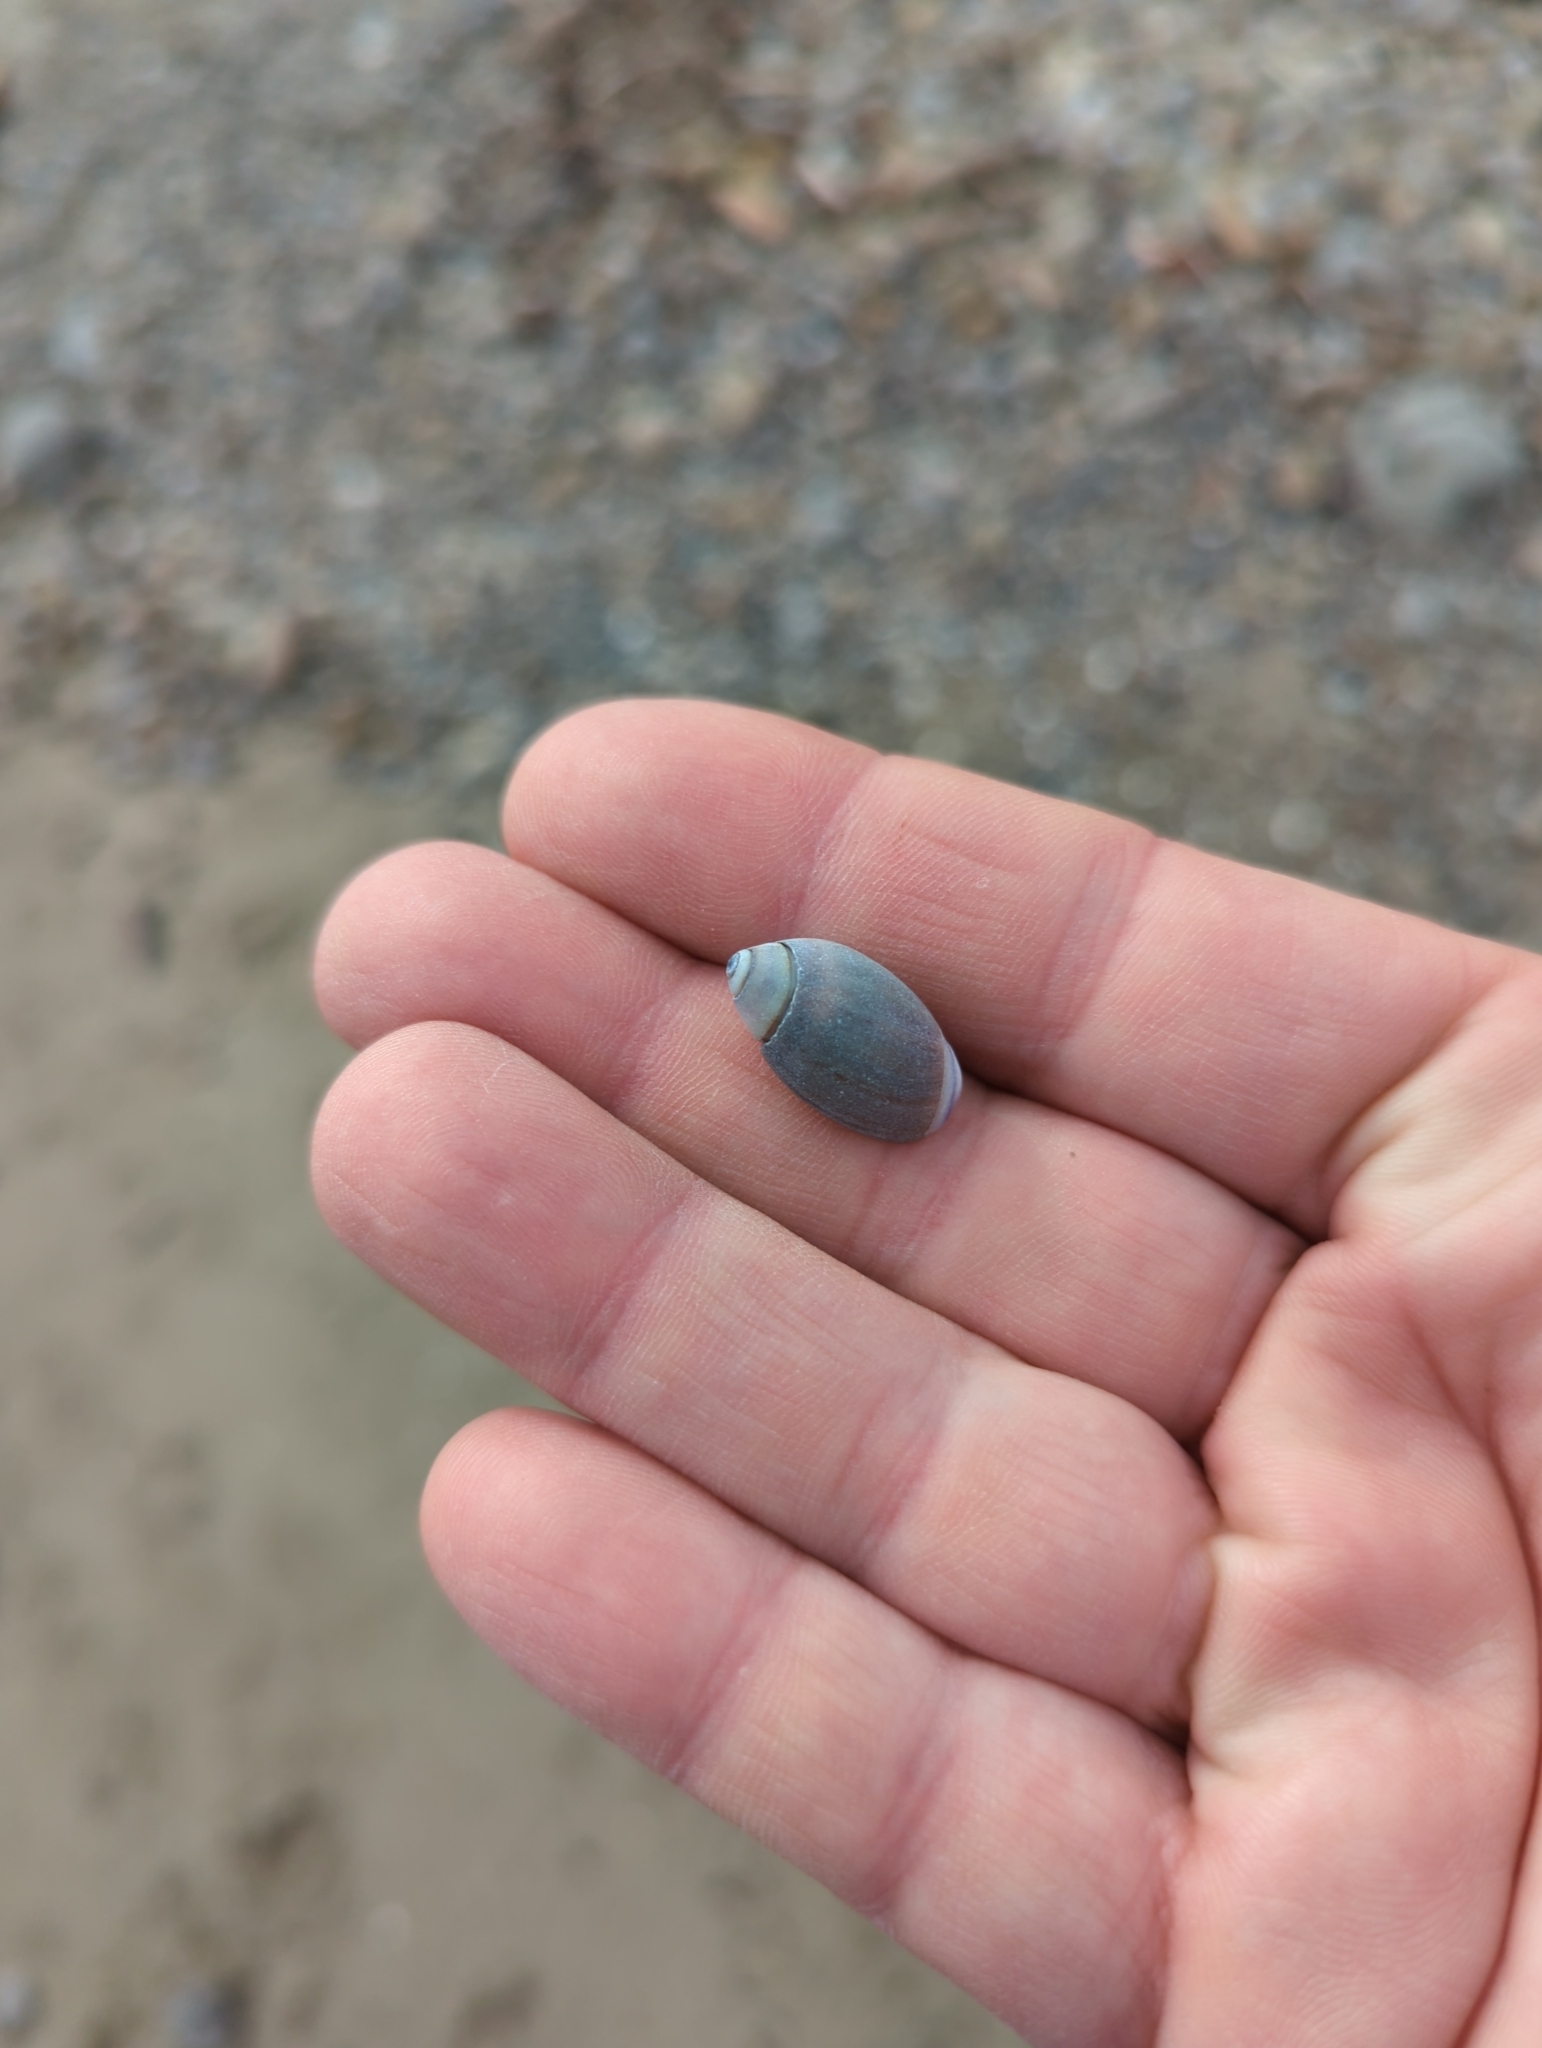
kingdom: Animalia
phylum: Mollusca
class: Gastropoda
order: Neogastropoda
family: Olividae
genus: Callianax
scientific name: Callianax biplicata
